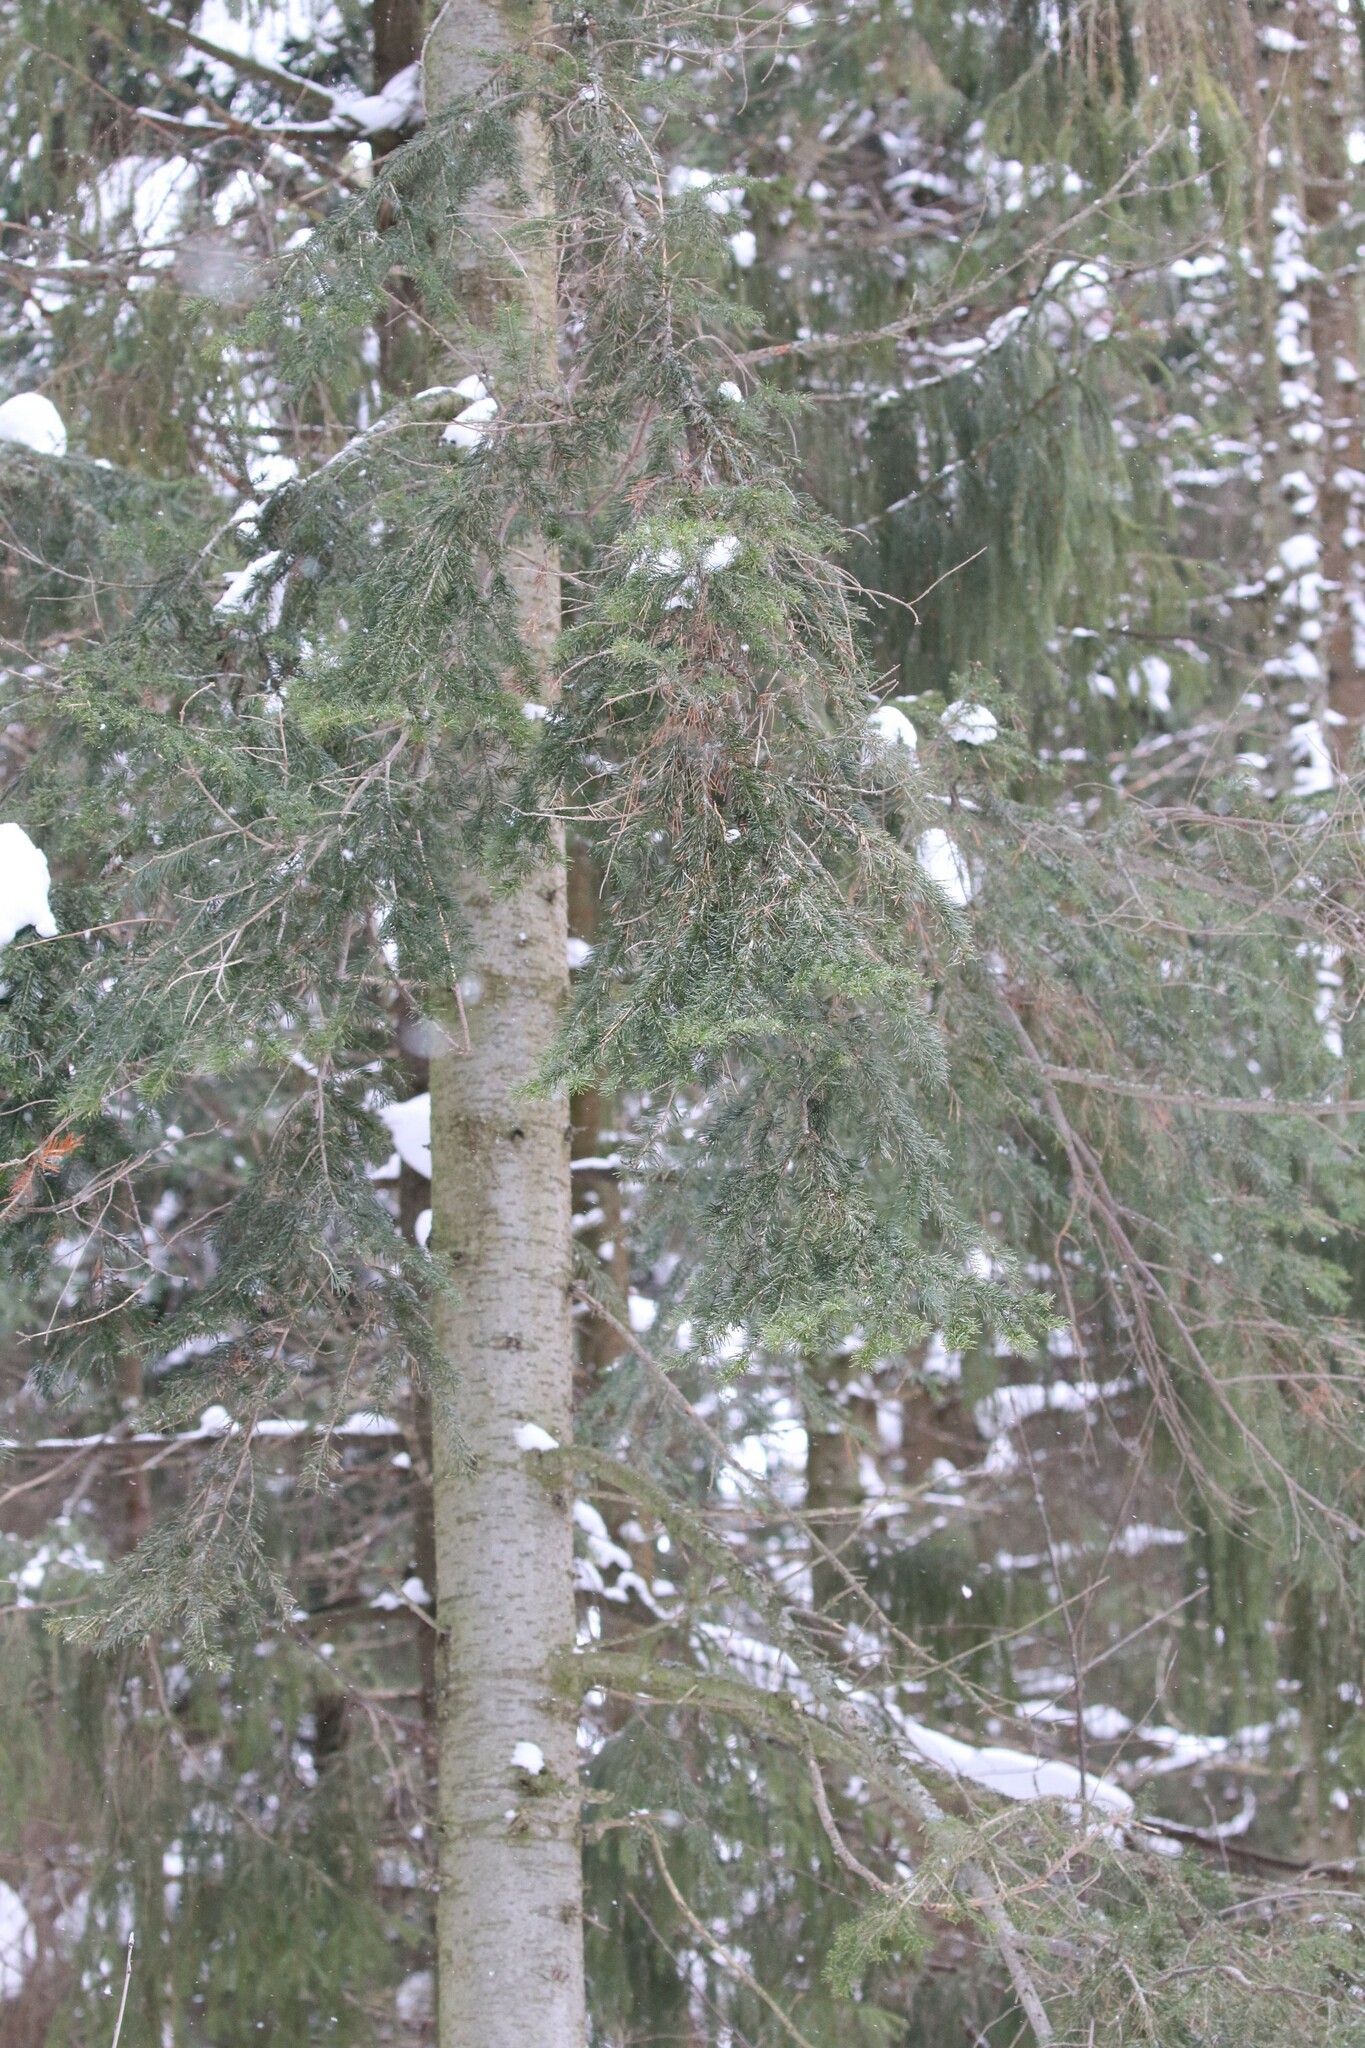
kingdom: Plantae
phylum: Tracheophyta
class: Pinopsida
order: Pinales
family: Pinaceae
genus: Abies
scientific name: Abies sibirica
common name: Siberian fir
